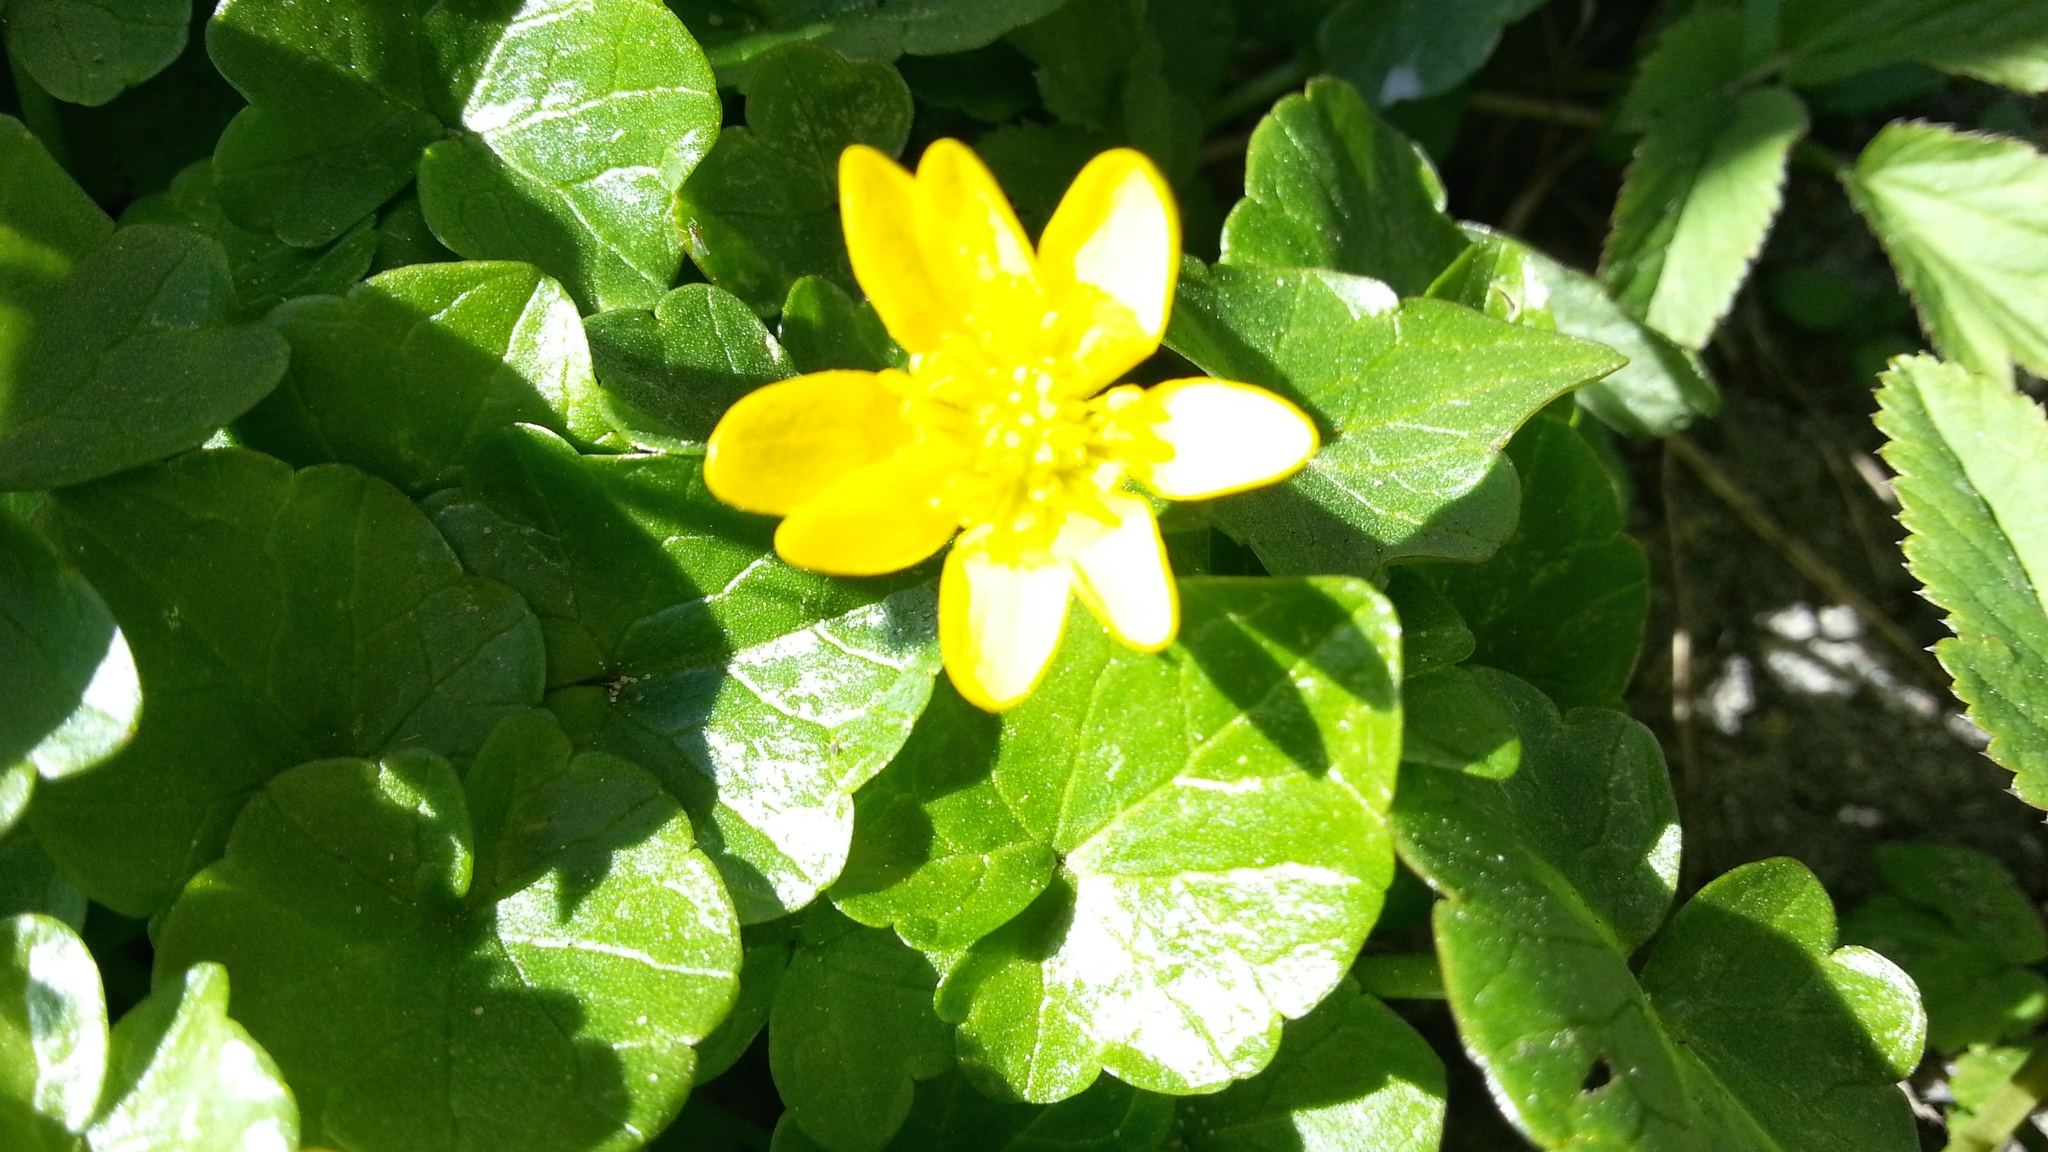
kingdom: Plantae
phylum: Tracheophyta
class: Magnoliopsida
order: Ranunculales
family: Ranunculaceae
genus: Ficaria
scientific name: Ficaria verna
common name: Lesser celandine
